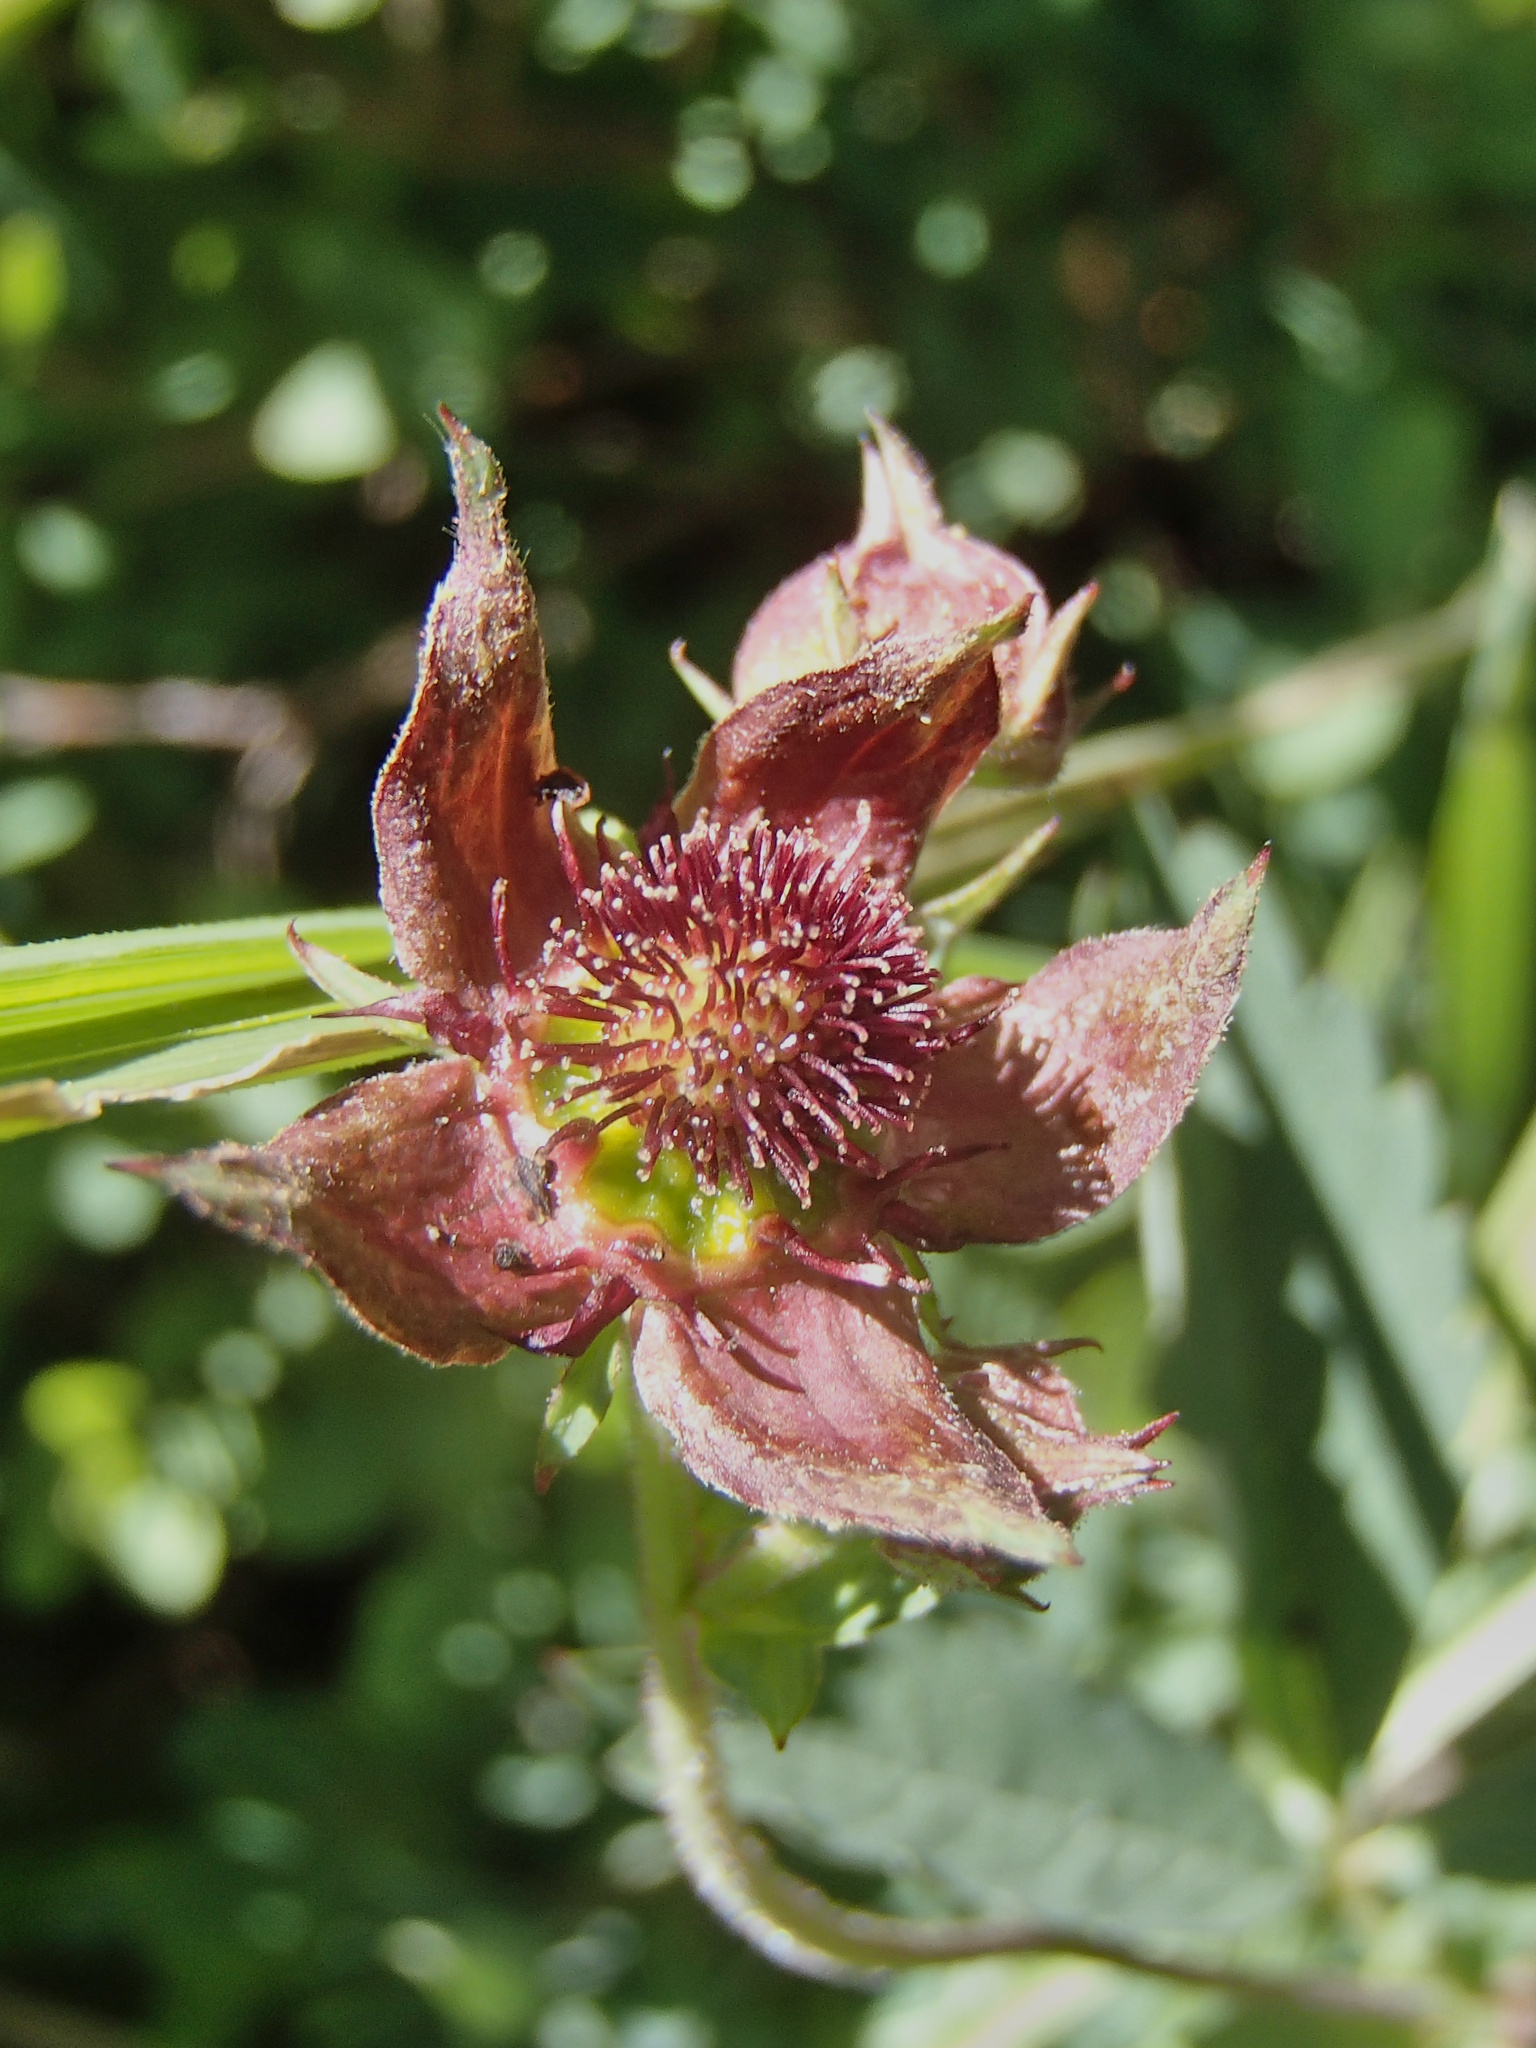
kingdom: Plantae
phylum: Tracheophyta
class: Magnoliopsida
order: Rosales
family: Rosaceae
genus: Comarum
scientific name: Comarum palustre
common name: Marsh cinquefoil
